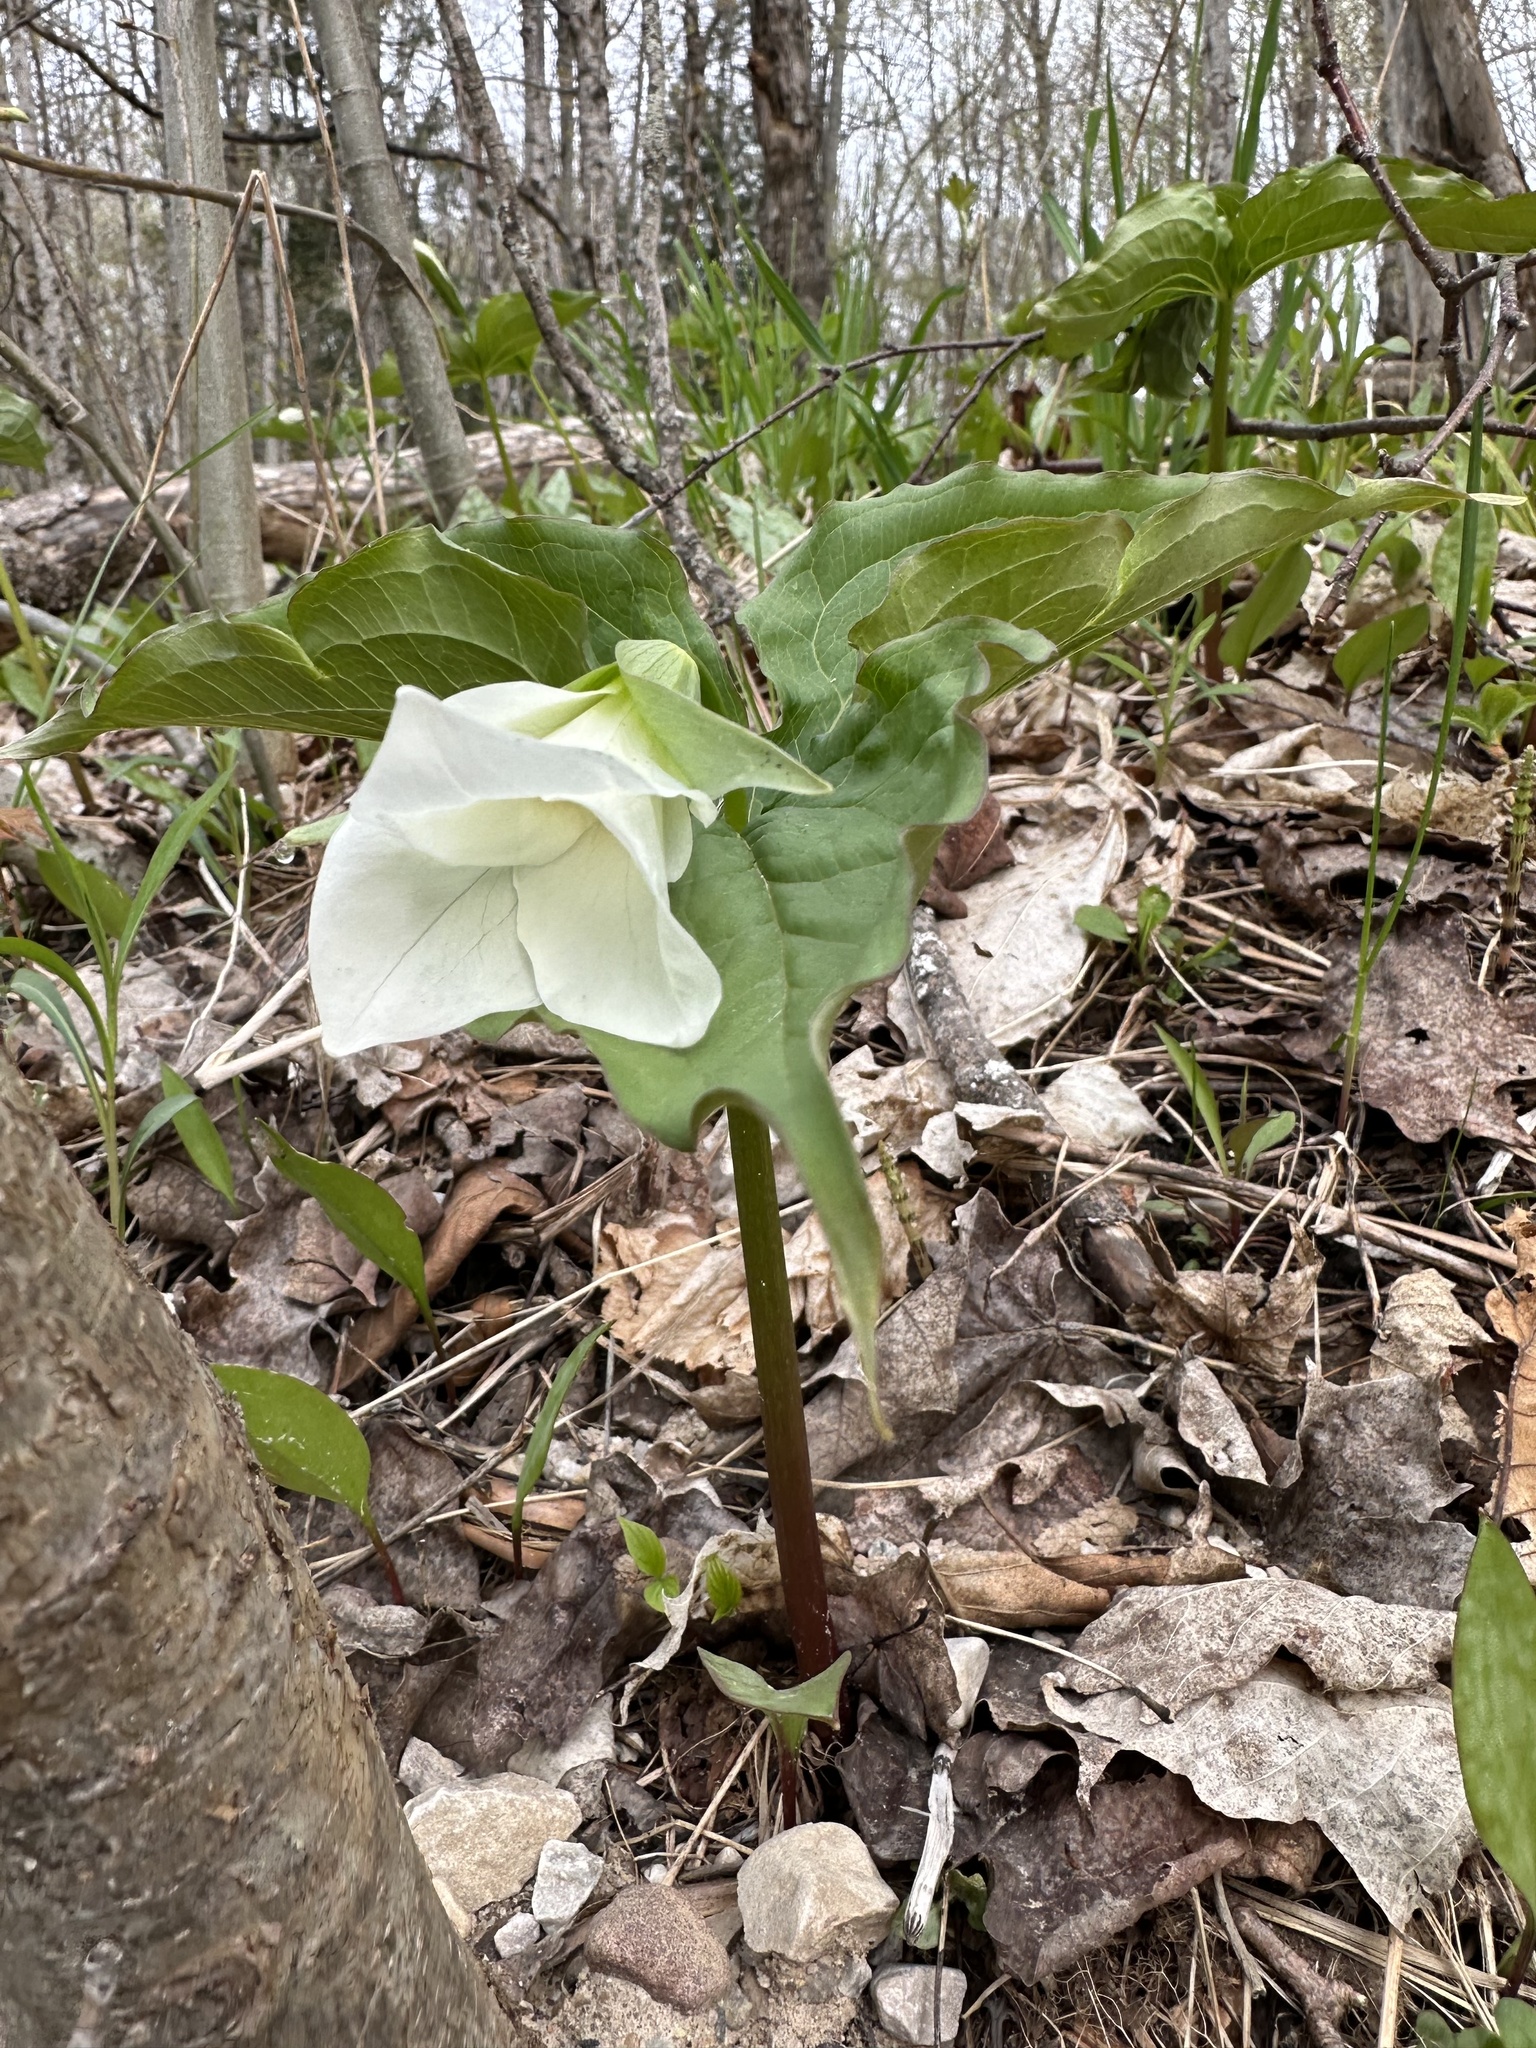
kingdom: Plantae
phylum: Tracheophyta
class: Liliopsida
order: Liliales
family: Melanthiaceae
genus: Trillium
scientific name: Trillium grandiflorum
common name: Great white trillium
